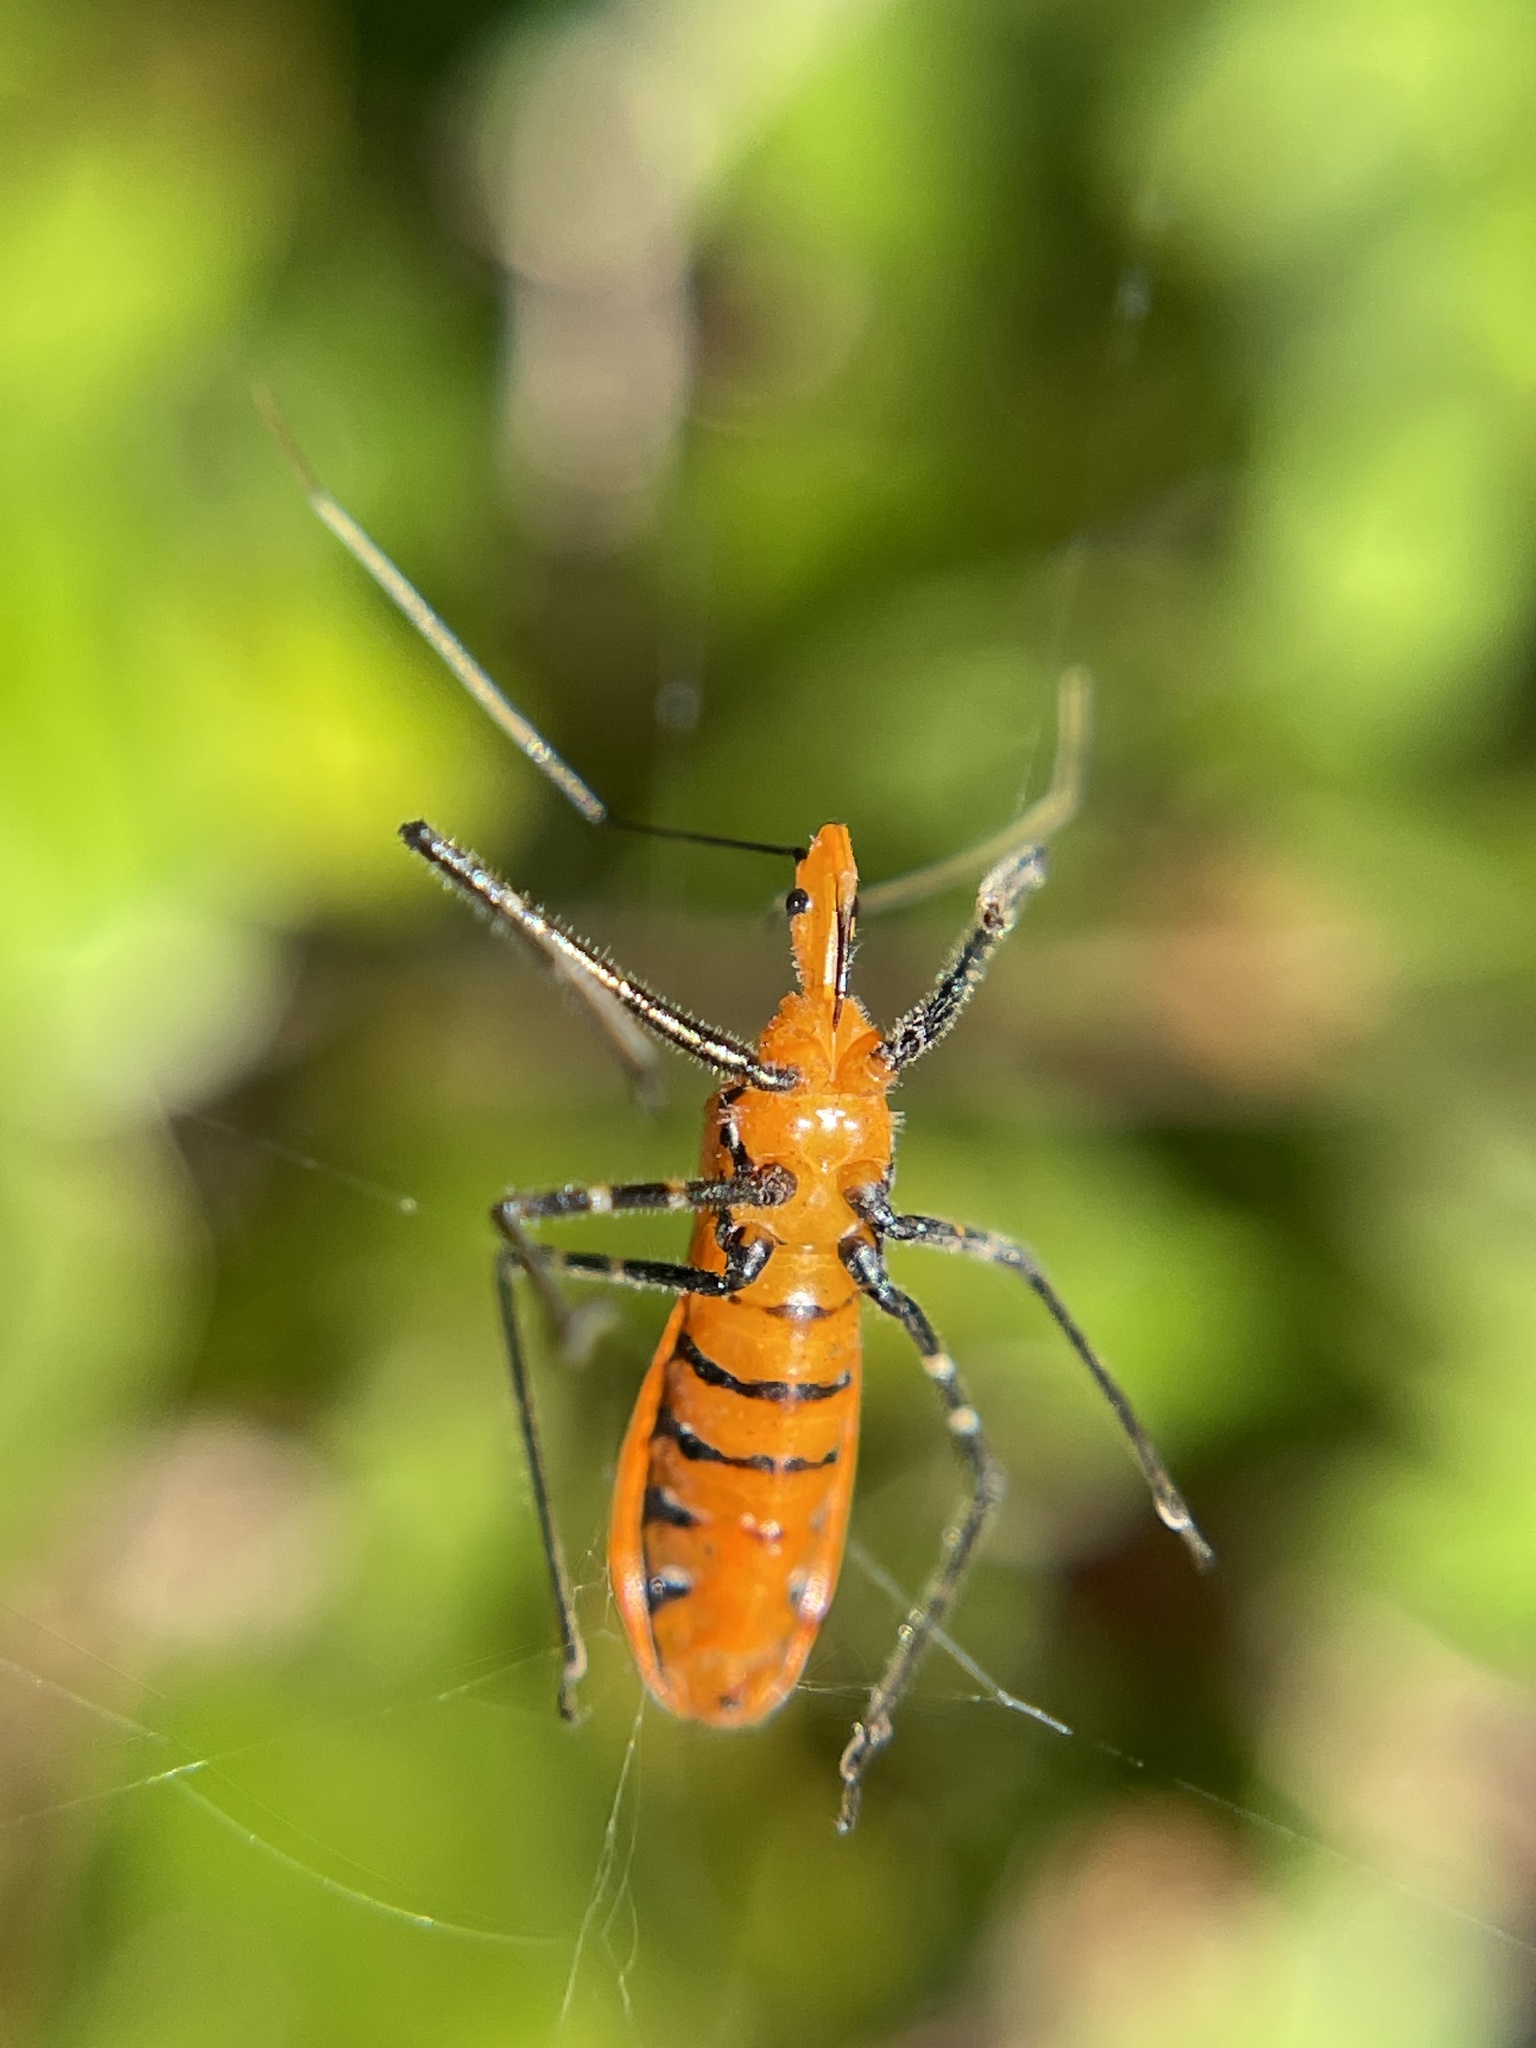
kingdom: Animalia
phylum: Arthropoda
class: Insecta
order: Hemiptera
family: Reduviidae
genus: Zelus
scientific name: Zelus longipes
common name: Milkweed assassin bug
